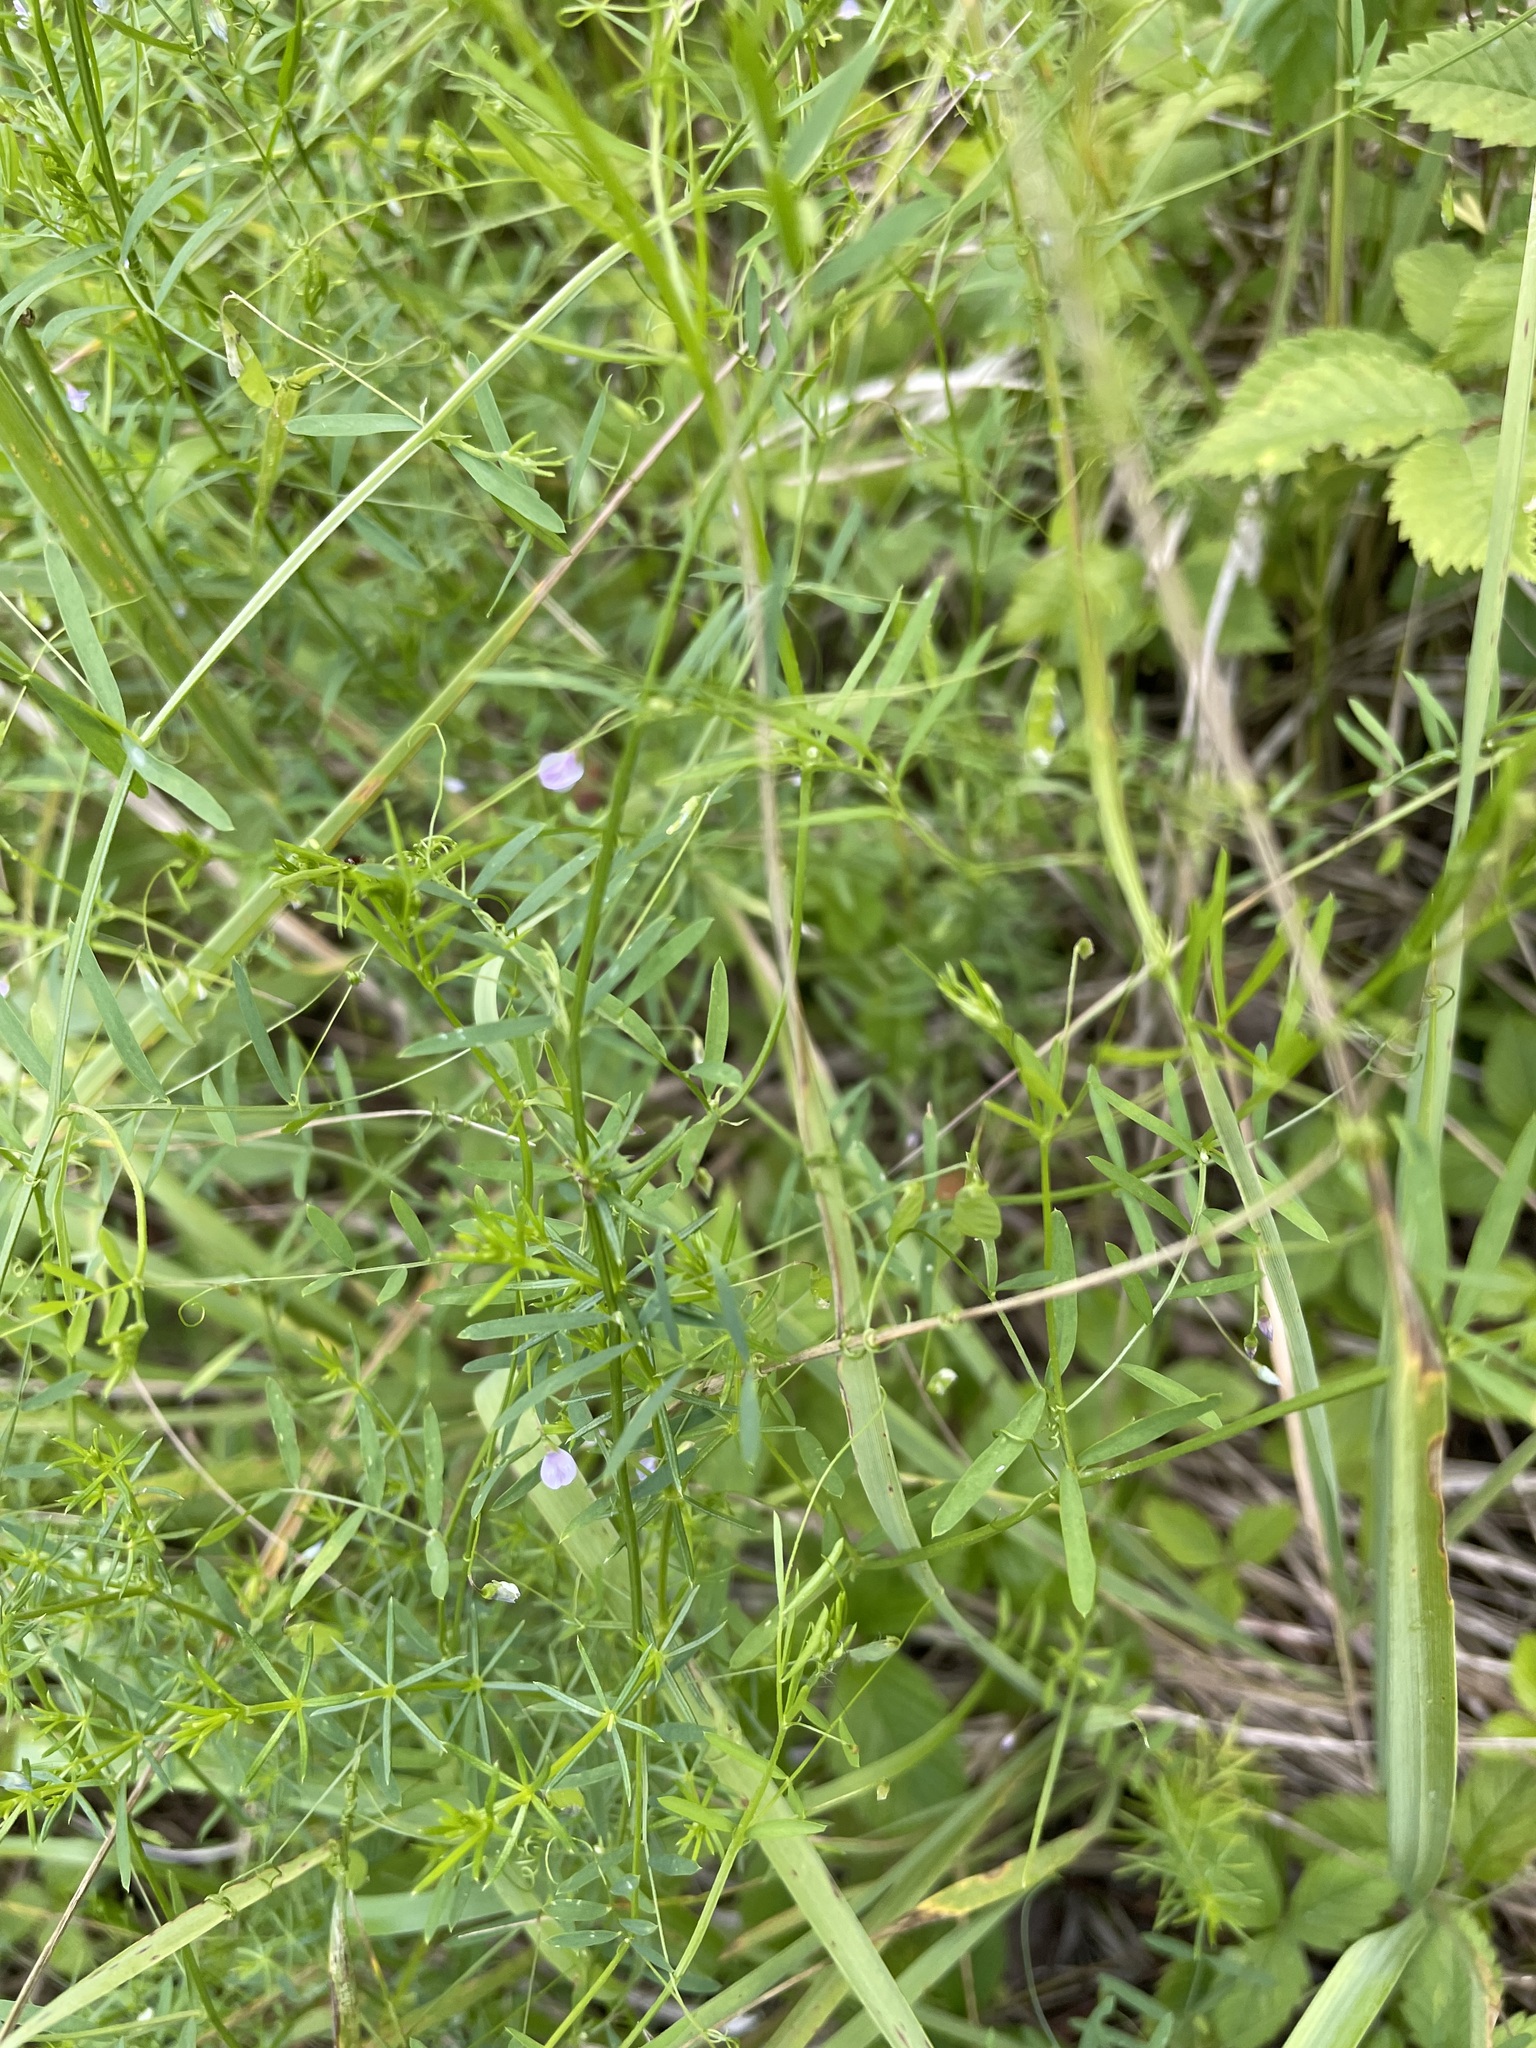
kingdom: Plantae
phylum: Tracheophyta
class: Magnoliopsida
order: Fabales
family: Fabaceae
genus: Vicia
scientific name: Vicia tetrasperma
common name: Smooth tare
